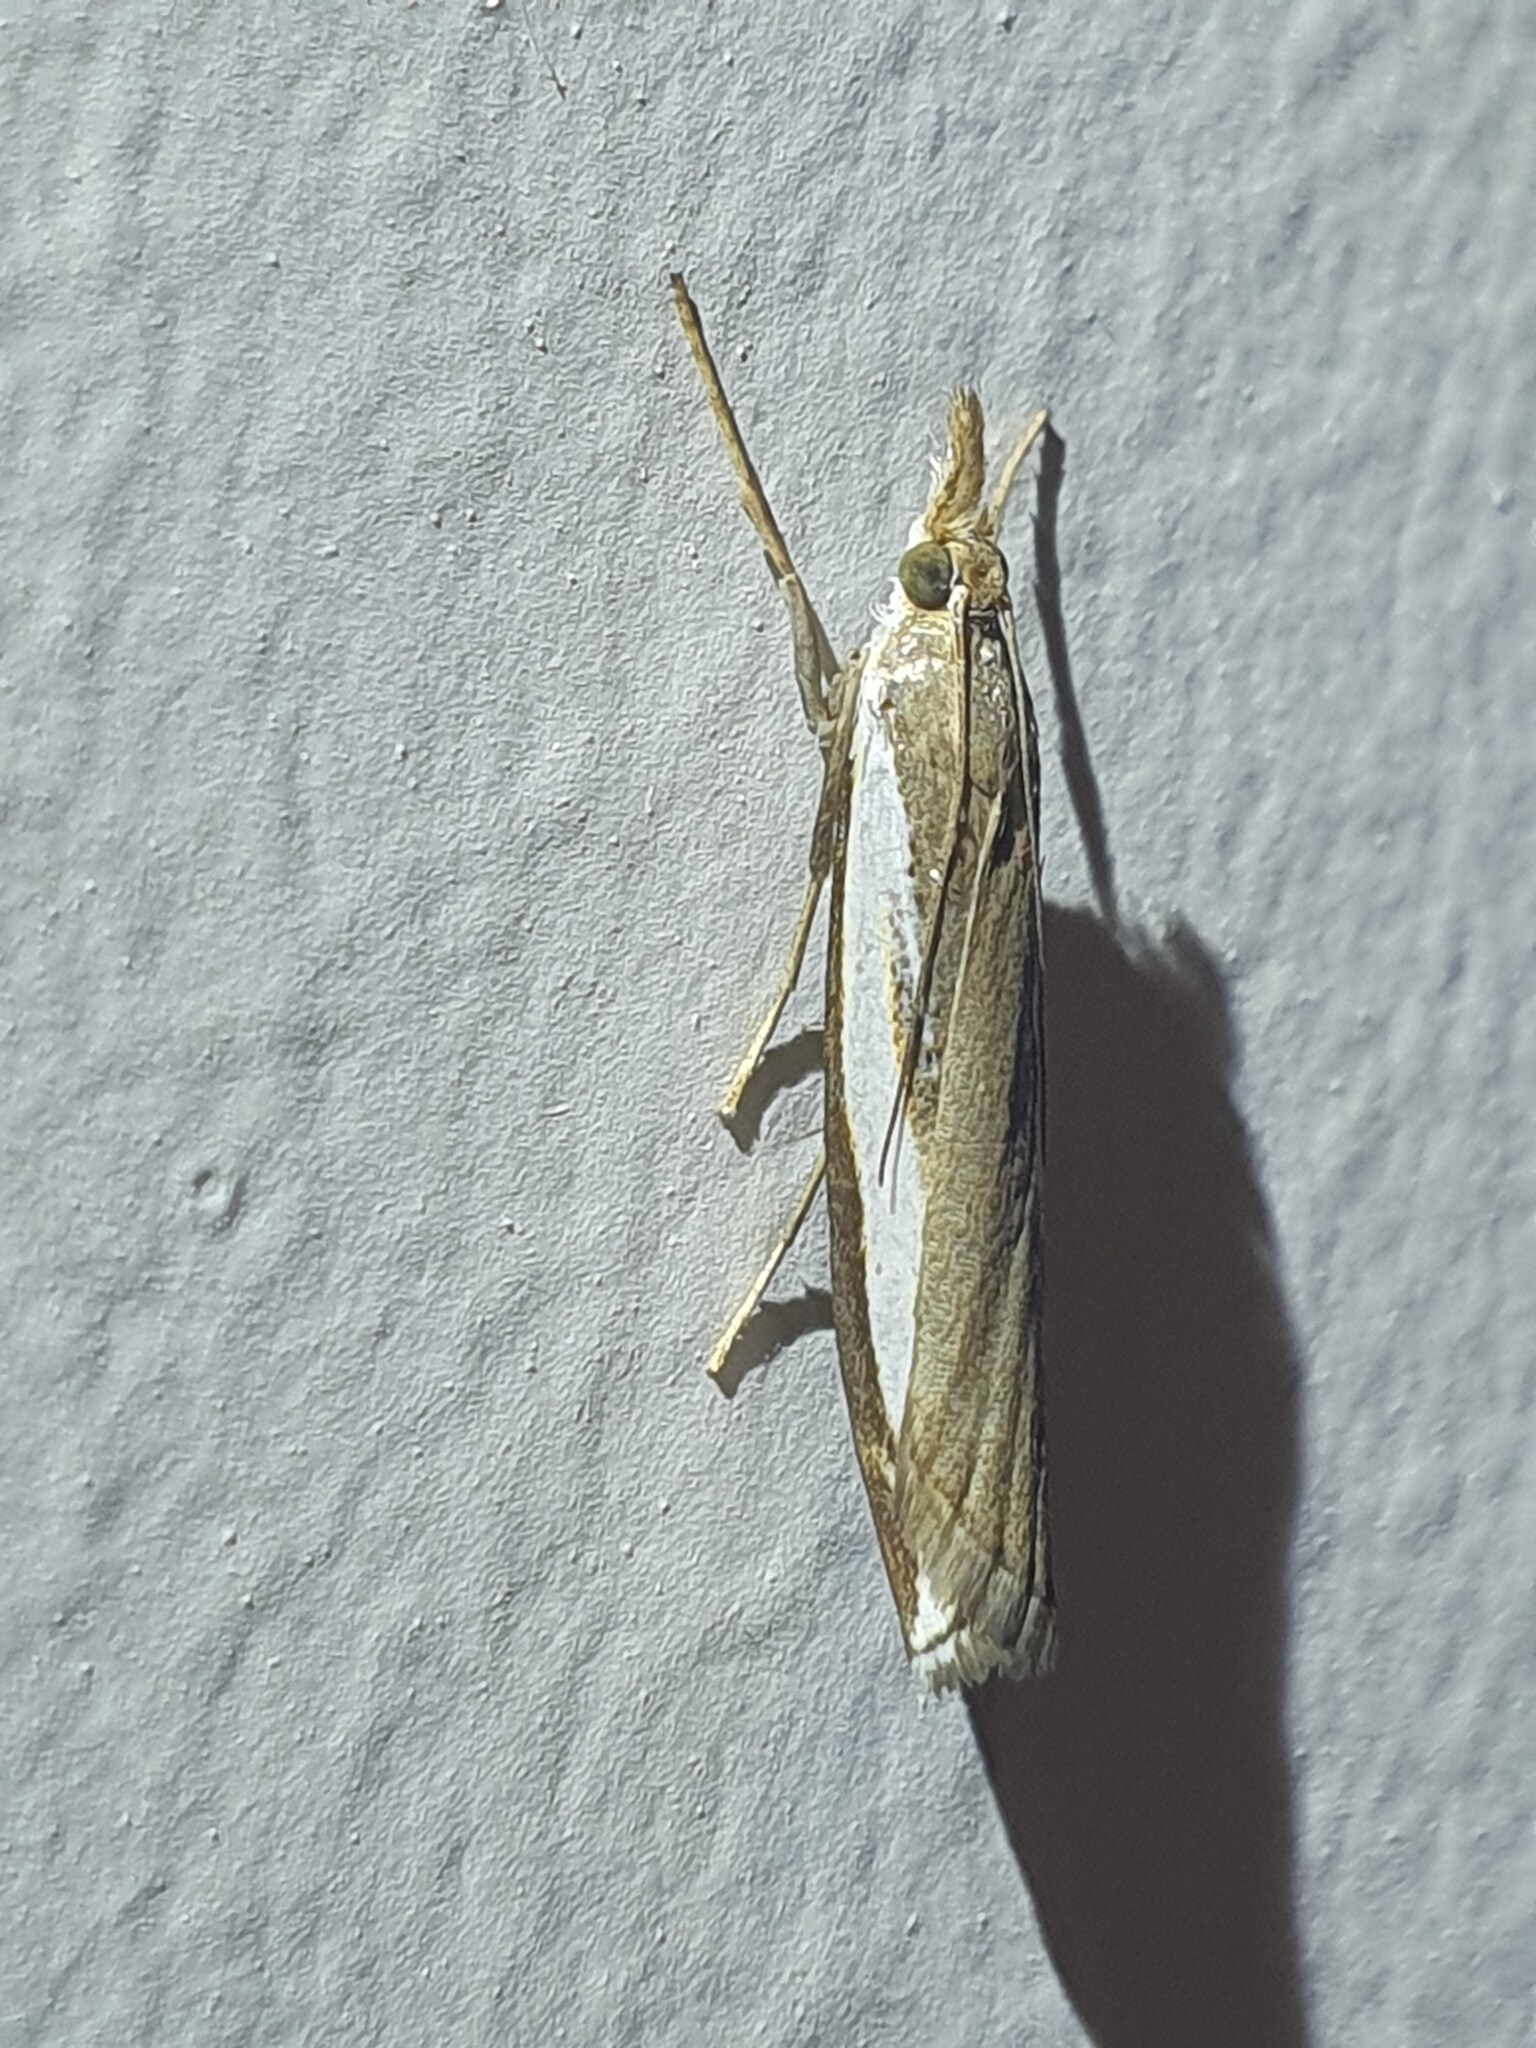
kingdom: Animalia
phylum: Arthropoda
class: Insecta
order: Lepidoptera
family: Crambidae
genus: Orocrambus
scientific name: Orocrambus flexuosellus
